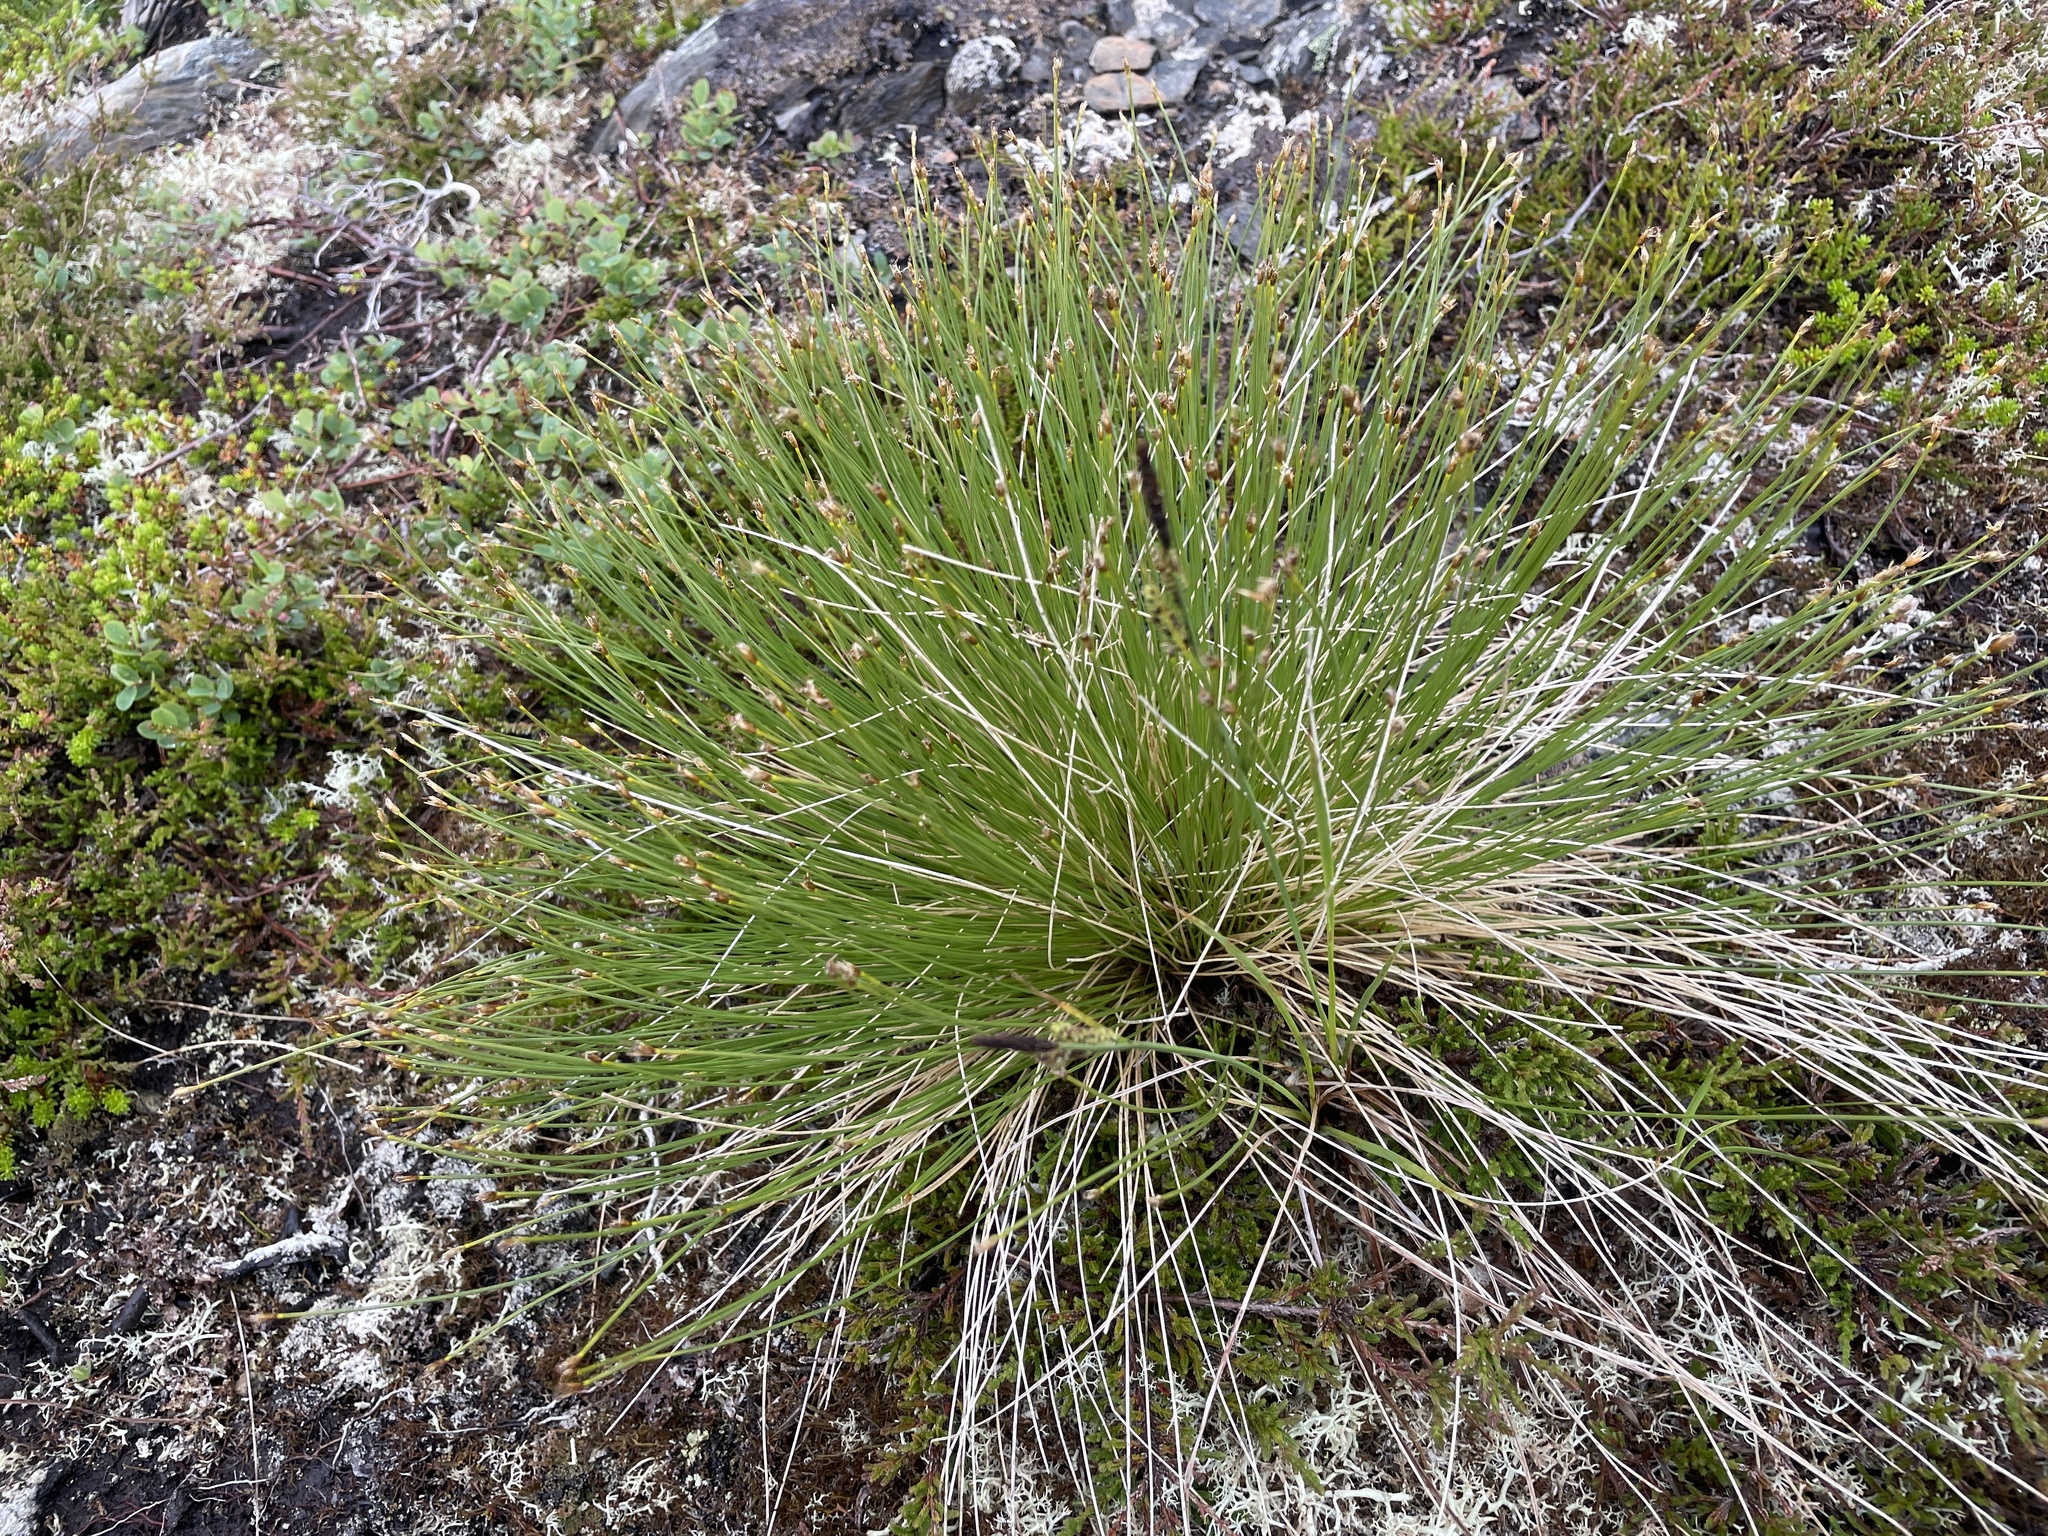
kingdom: Plantae
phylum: Tracheophyta
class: Liliopsida
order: Poales
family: Cyperaceae
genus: Trichophorum
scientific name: Trichophorum cespitosum
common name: Cespitose bulrush
